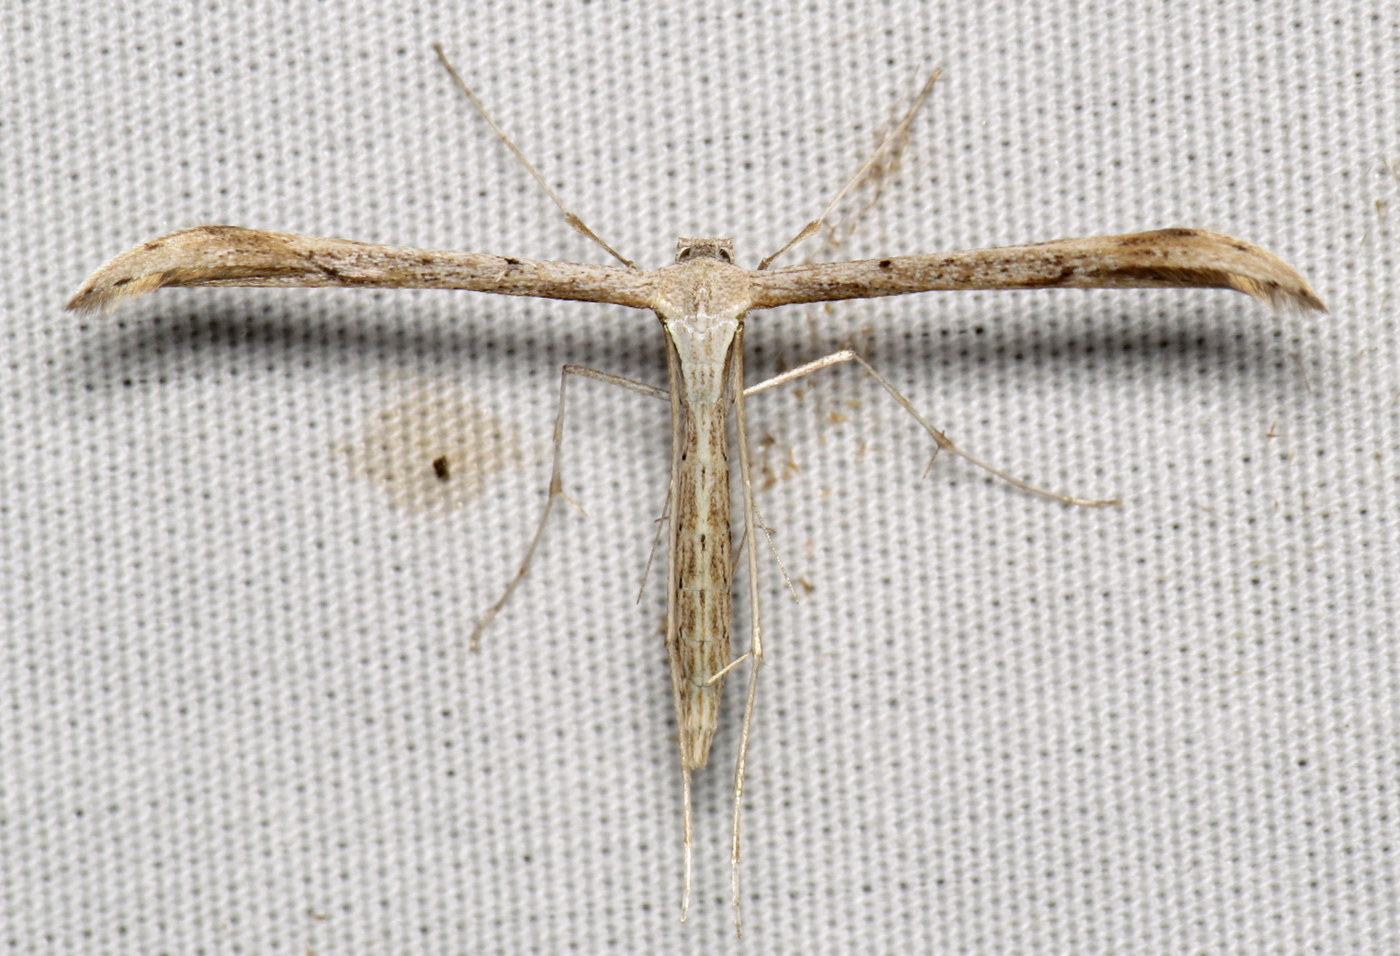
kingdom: Animalia
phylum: Arthropoda
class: Insecta
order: Lepidoptera
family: Pterophoridae
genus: Emmelina
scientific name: Emmelina monodactyla
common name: Common plume
